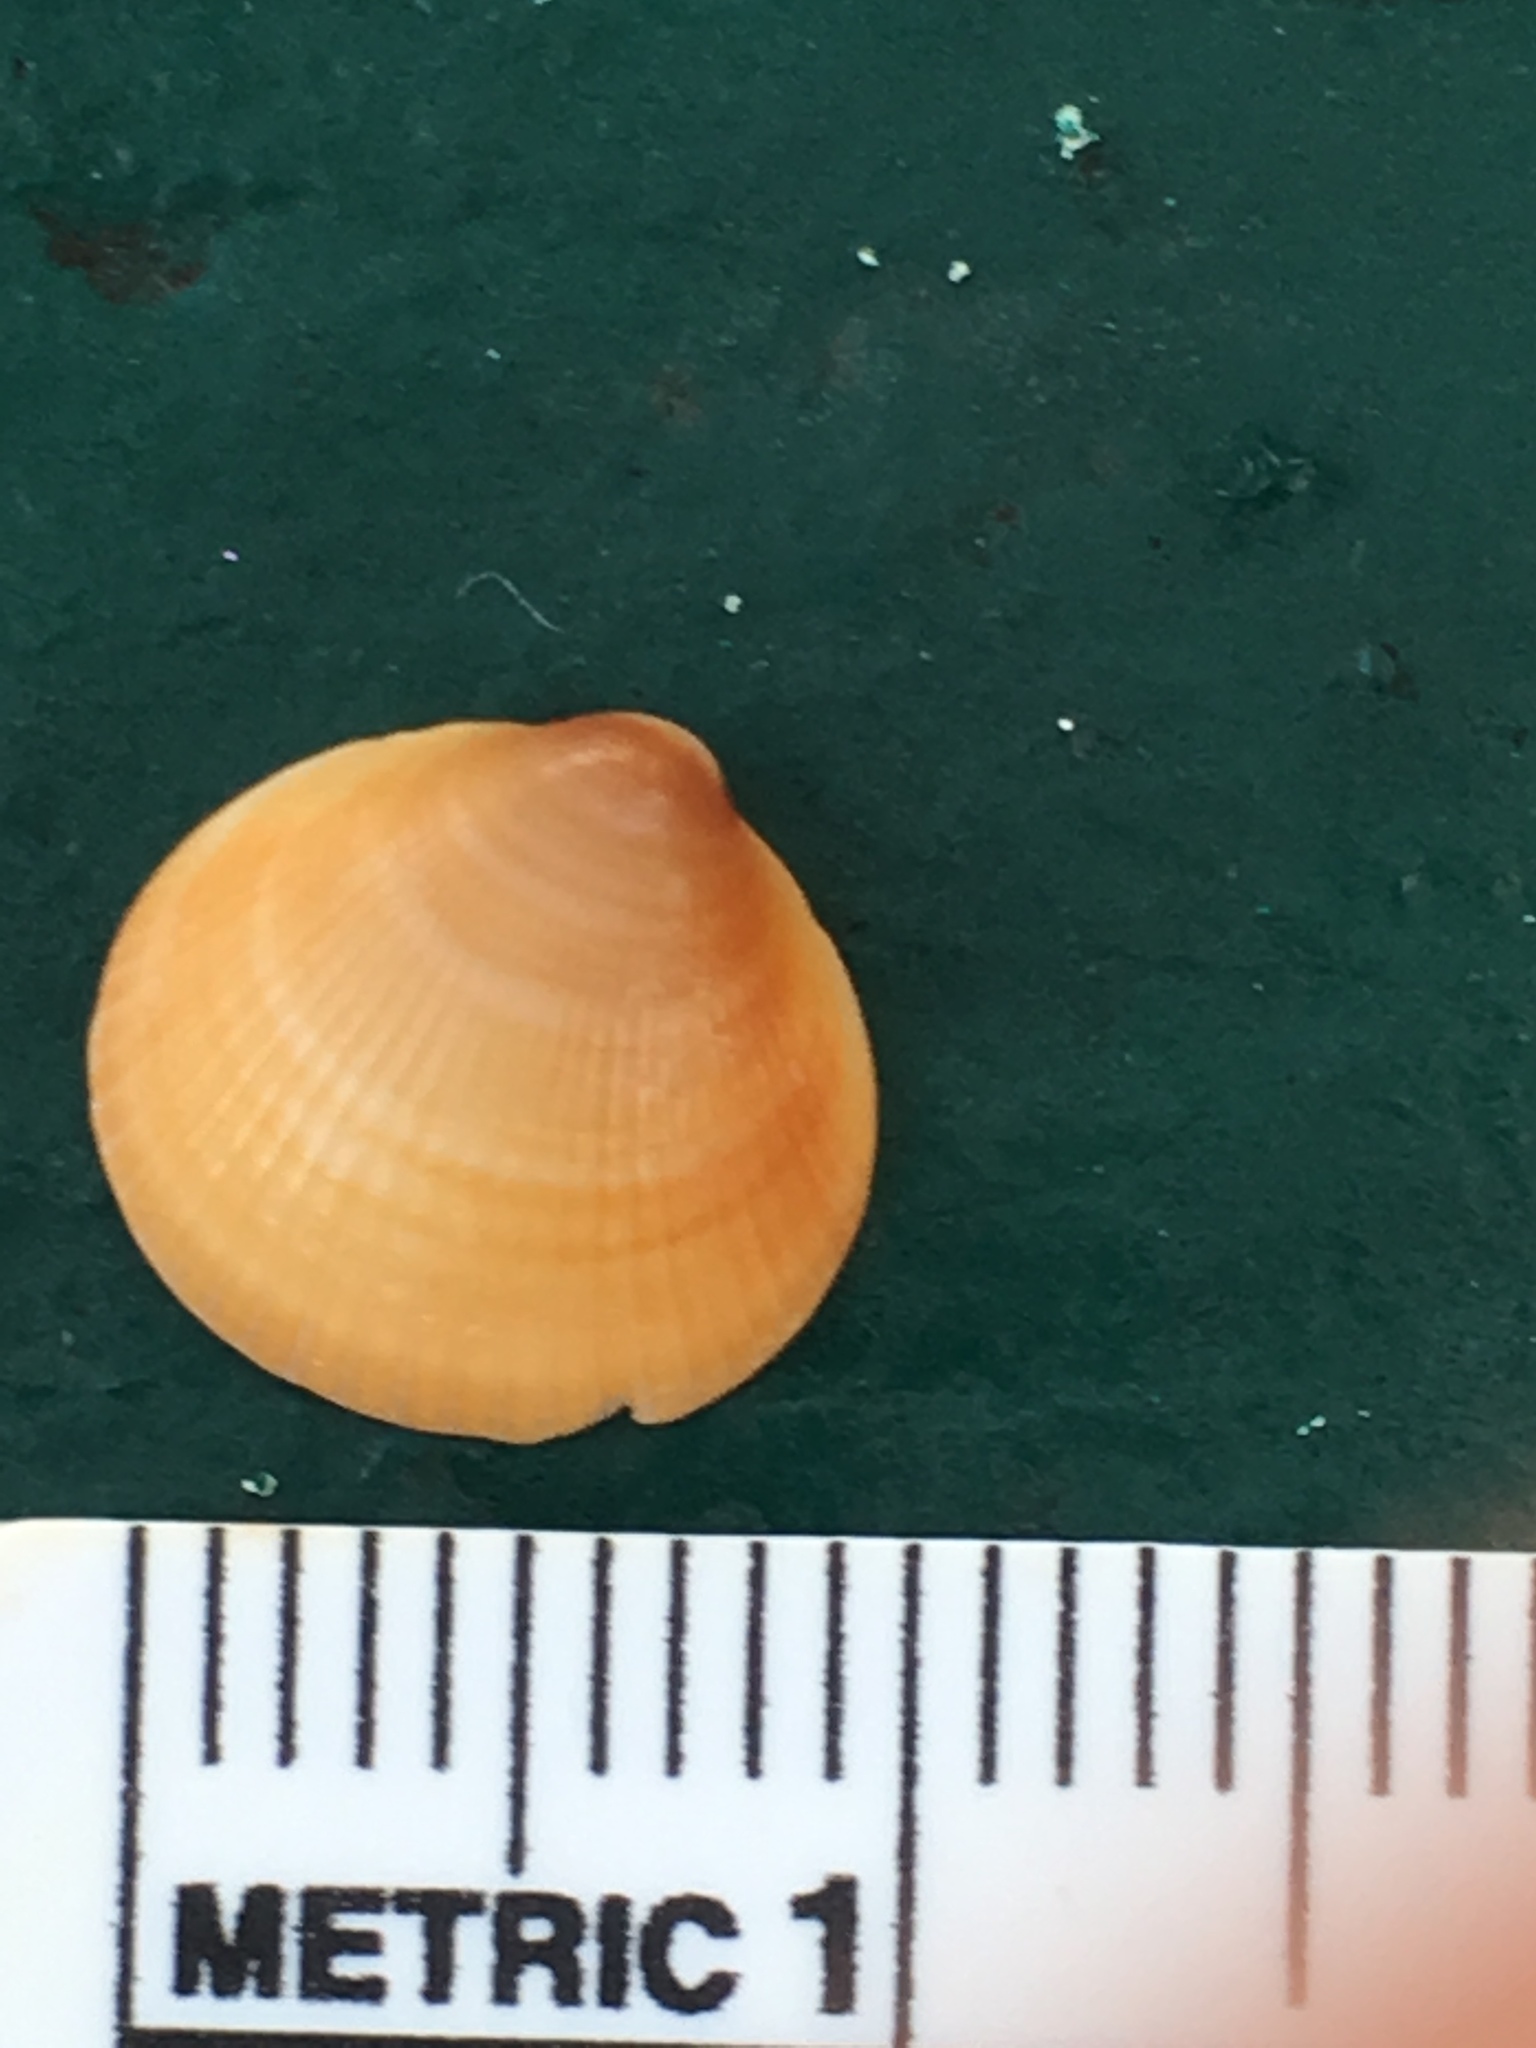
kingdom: Animalia
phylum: Mollusca
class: Bivalvia
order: Arcida
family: Glycymerididae
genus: Glycymeris
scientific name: Glycymeris spectralis
